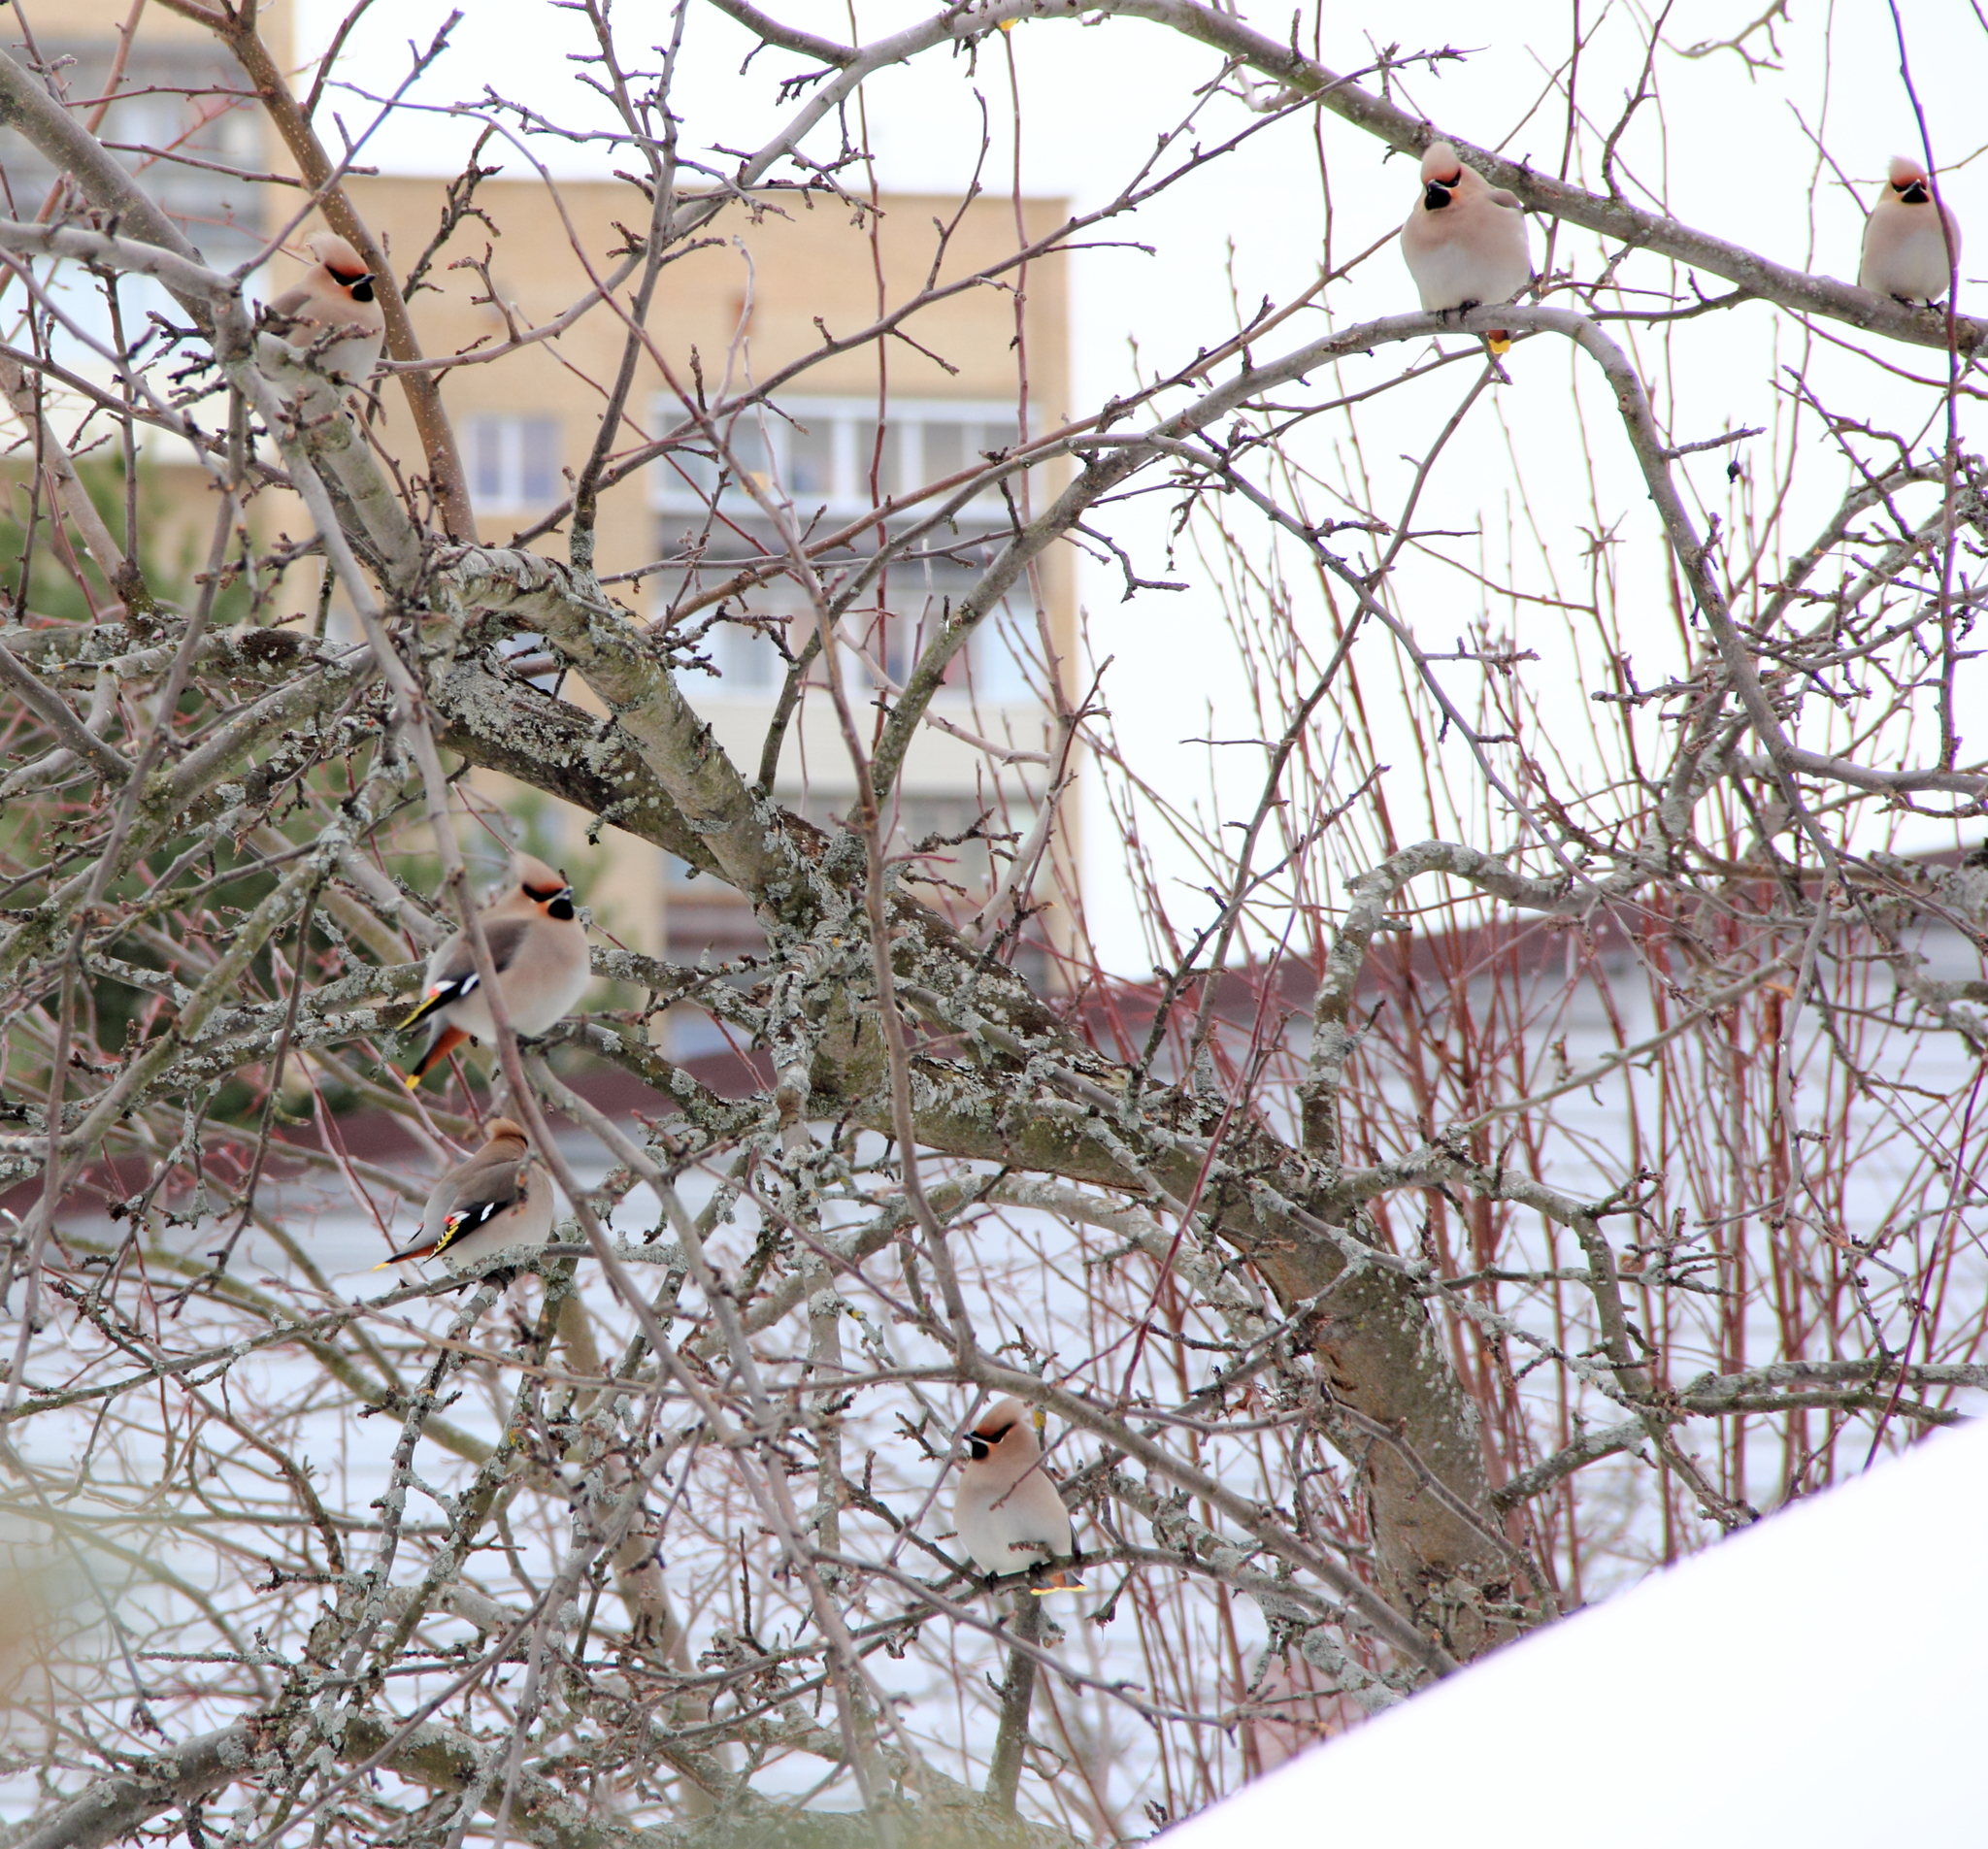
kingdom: Animalia
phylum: Chordata
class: Aves
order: Passeriformes
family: Bombycillidae
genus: Bombycilla
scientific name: Bombycilla garrulus
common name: Bohemian waxwing
